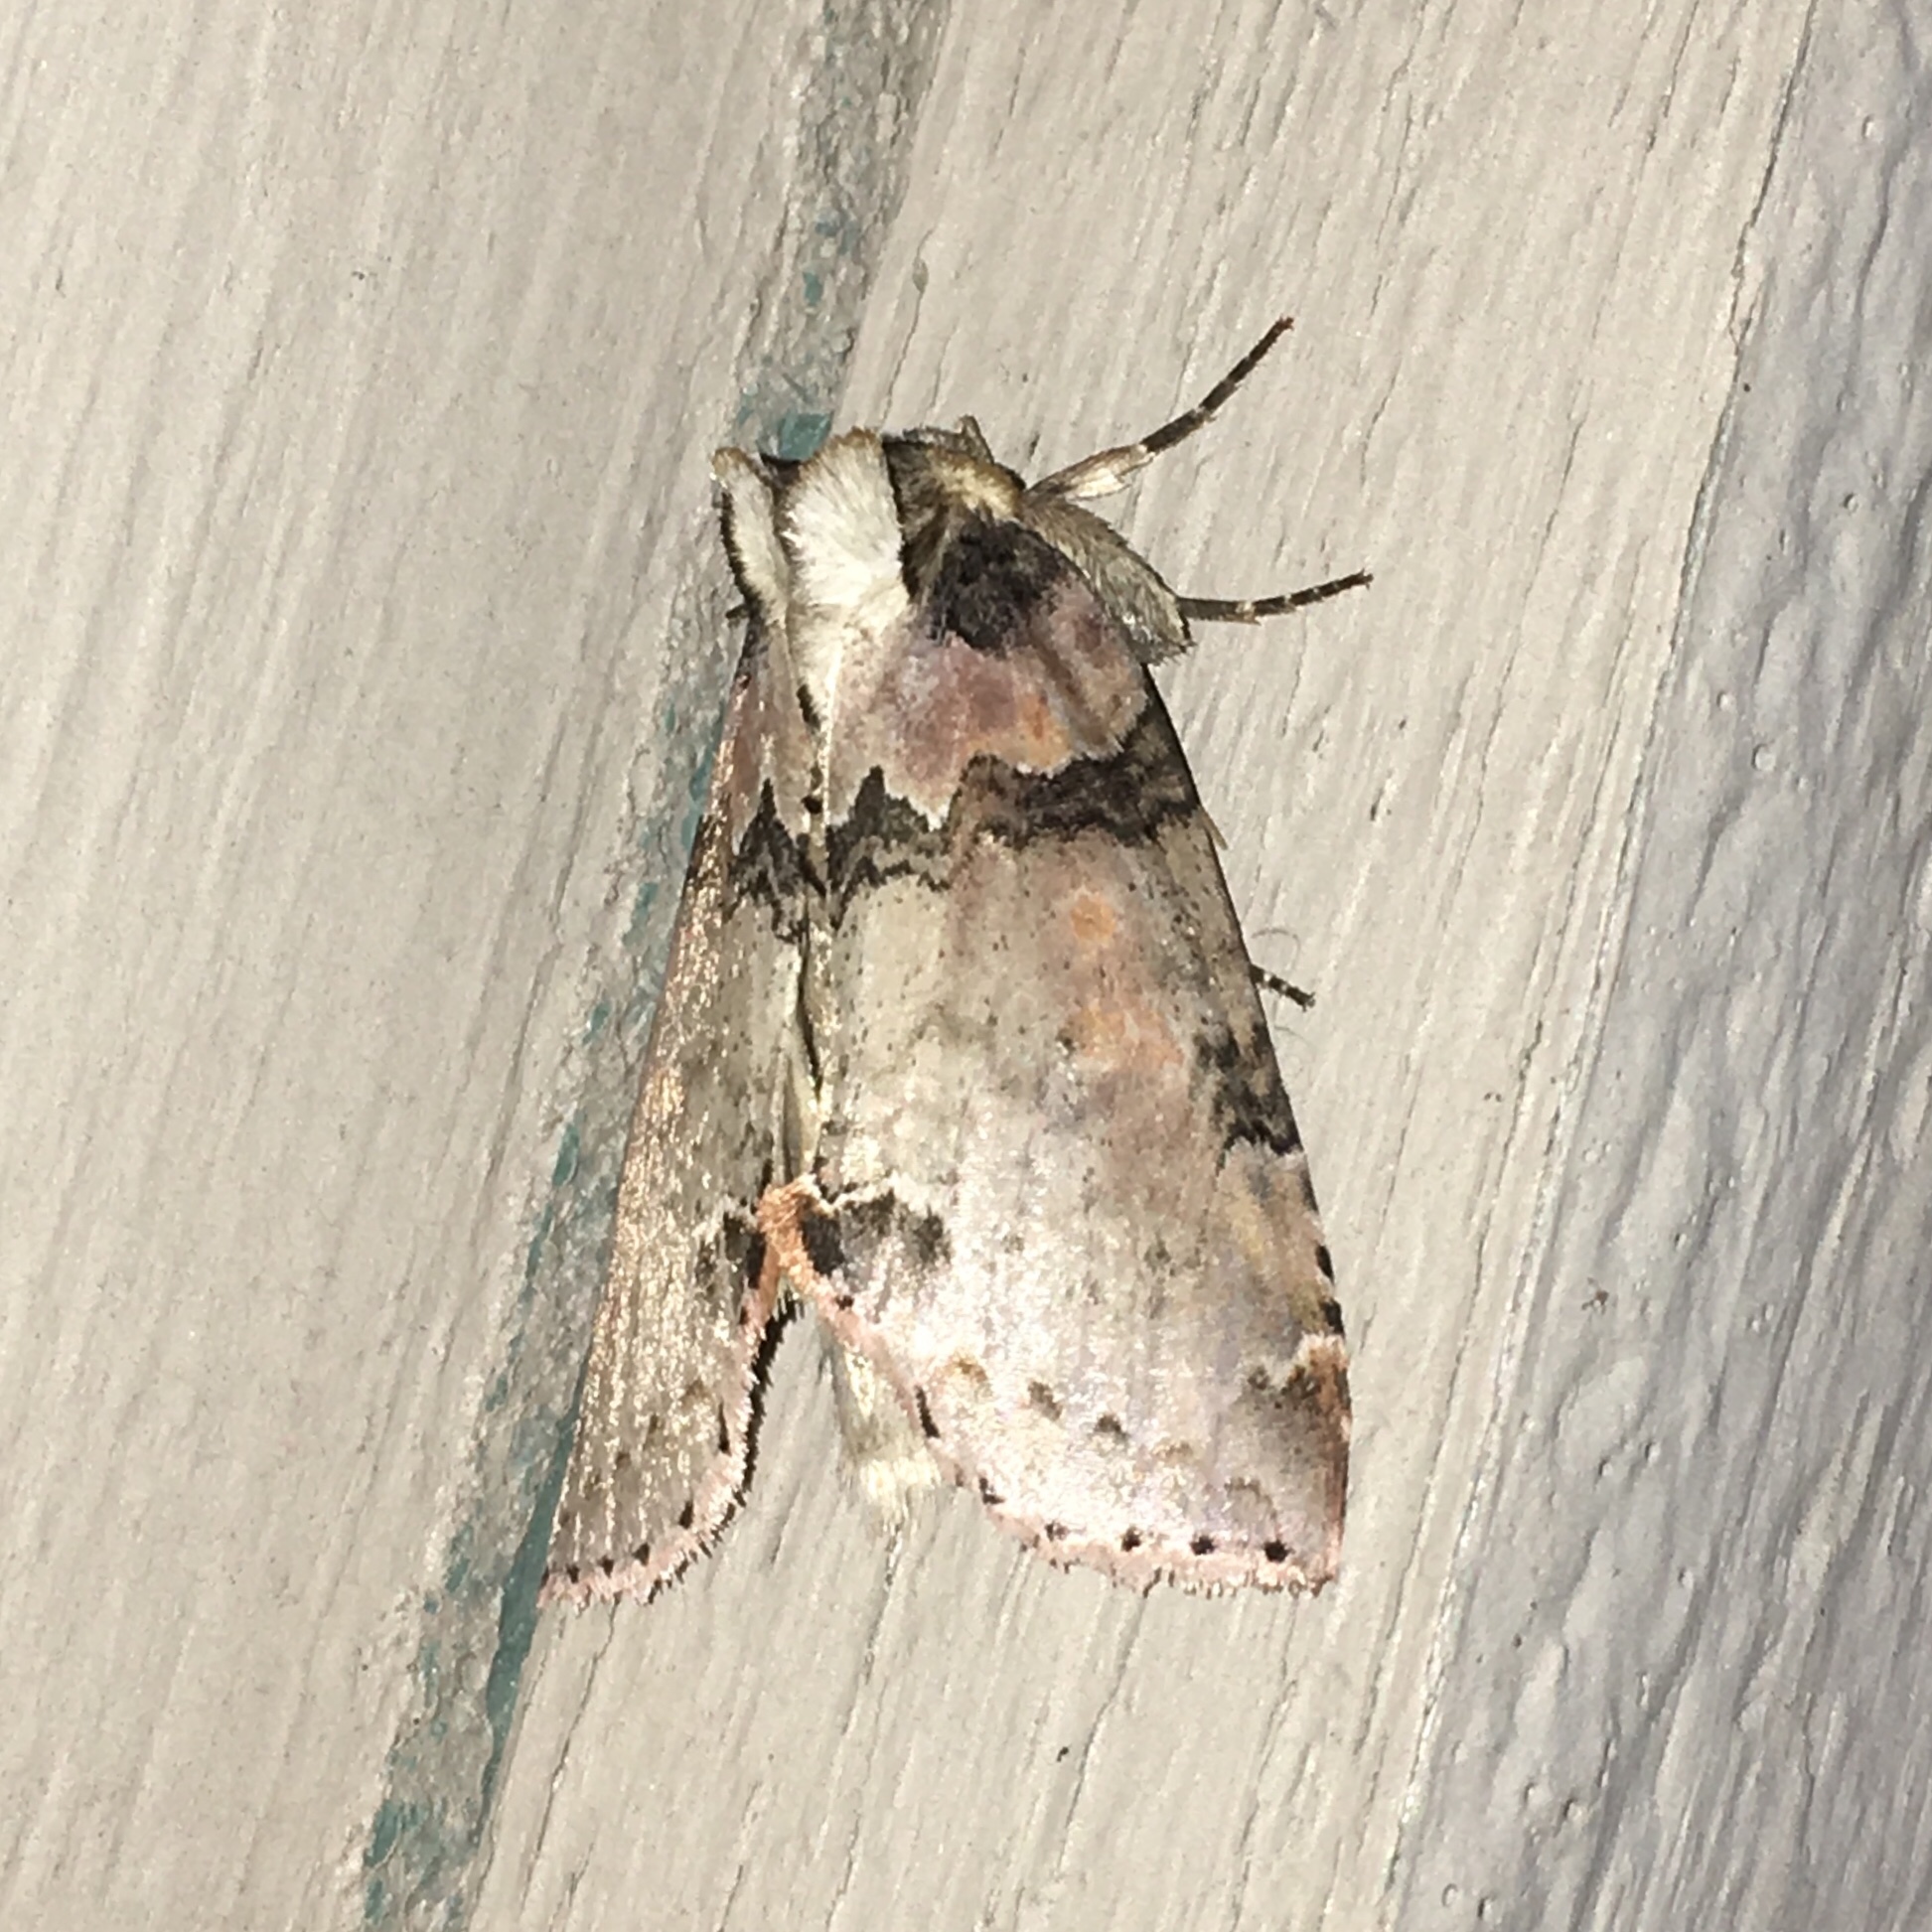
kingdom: Animalia
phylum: Arthropoda
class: Insecta
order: Lepidoptera
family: Drepanidae
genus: Pseudothyatira
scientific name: Pseudothyatira cymatophoroides
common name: Tufted thyatirid moth
